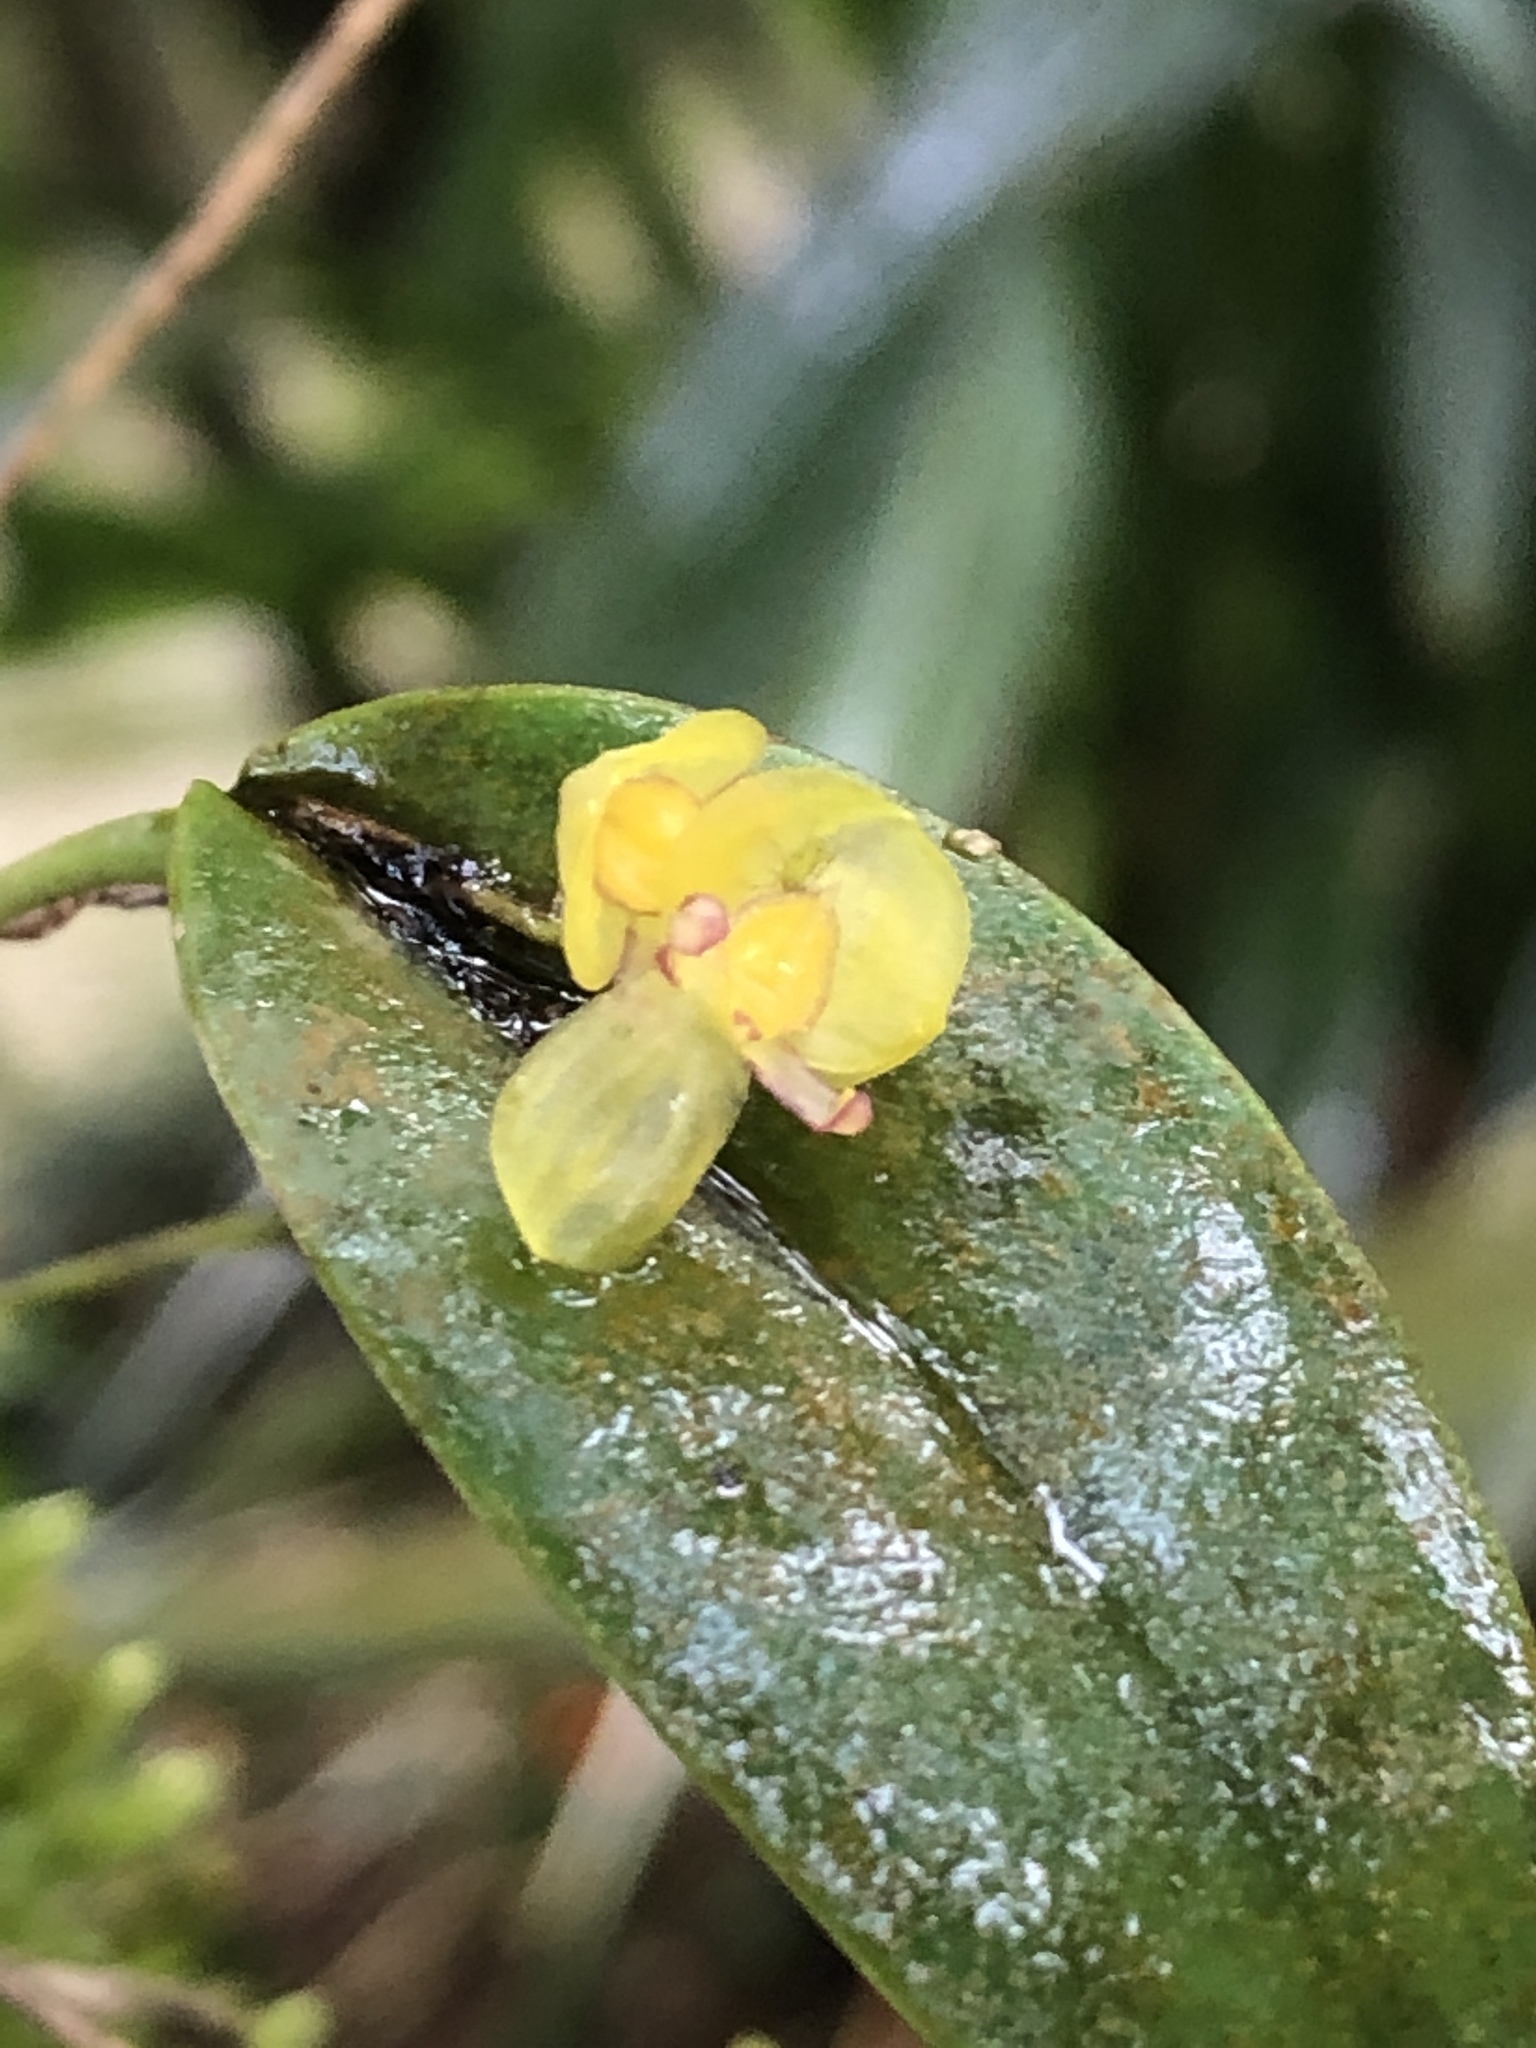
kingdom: Plantae
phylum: Tracheophyta
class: Liliopsida
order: Asparagales
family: Orchidaceae
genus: Pleurothallis
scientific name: Pleurothallis dorotheae
